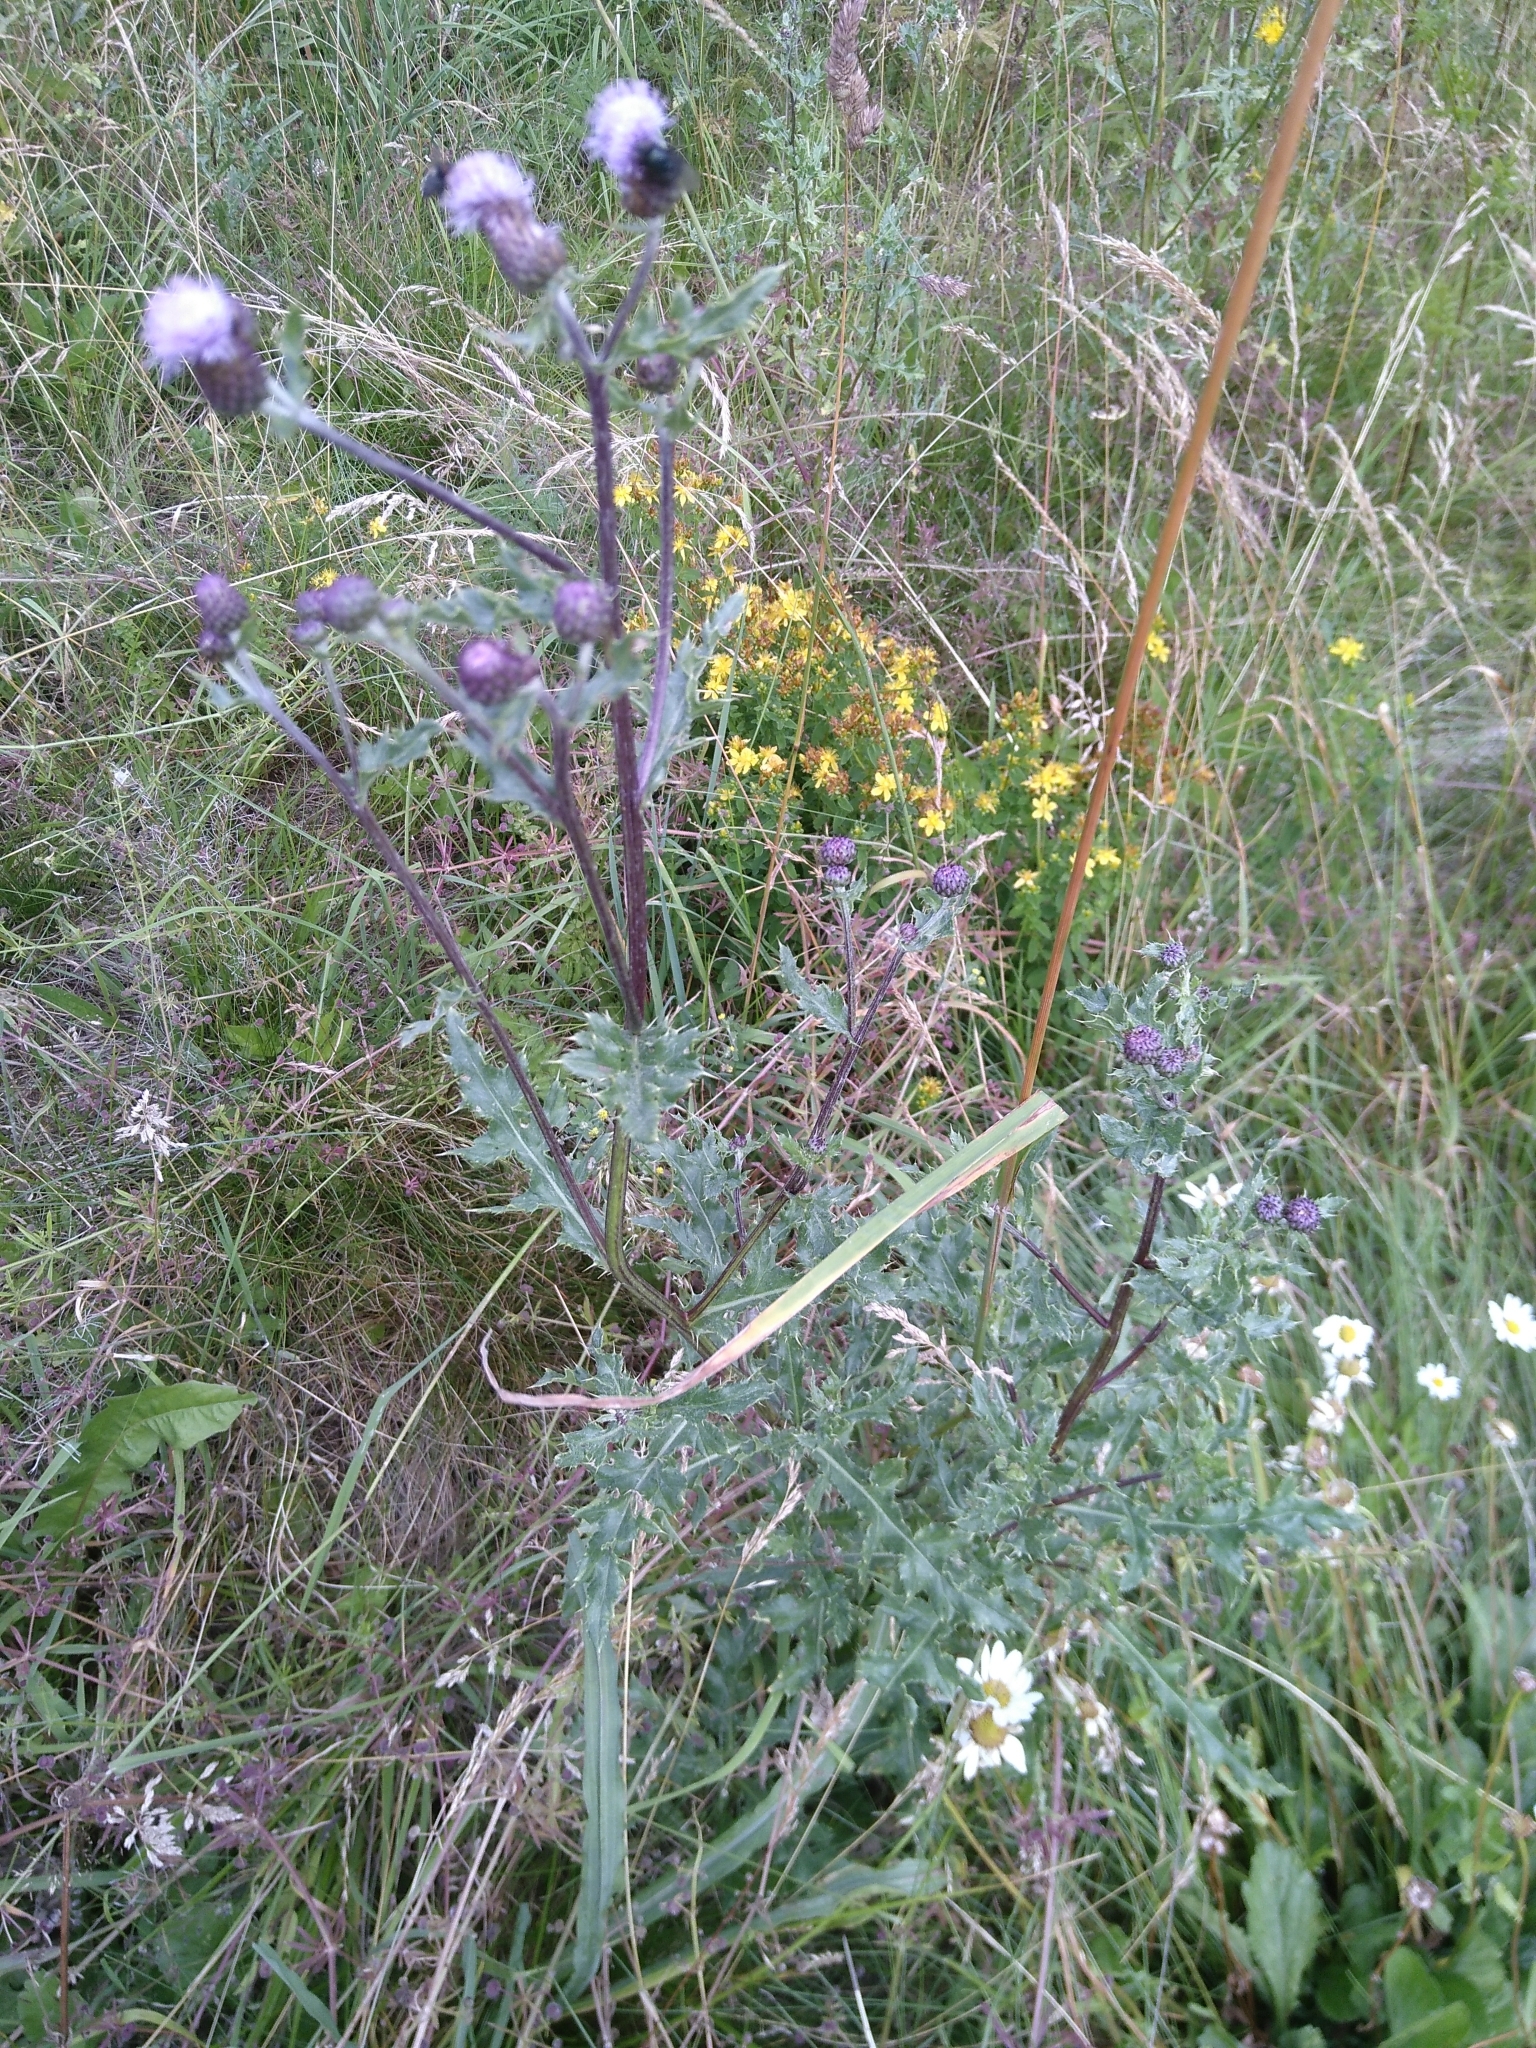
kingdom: Plantae
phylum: Tracheophyta
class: Magnoliopsida
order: Asterales
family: Asteraceae
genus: Cirsium
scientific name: Cirsium arvense
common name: Creeping thistle
